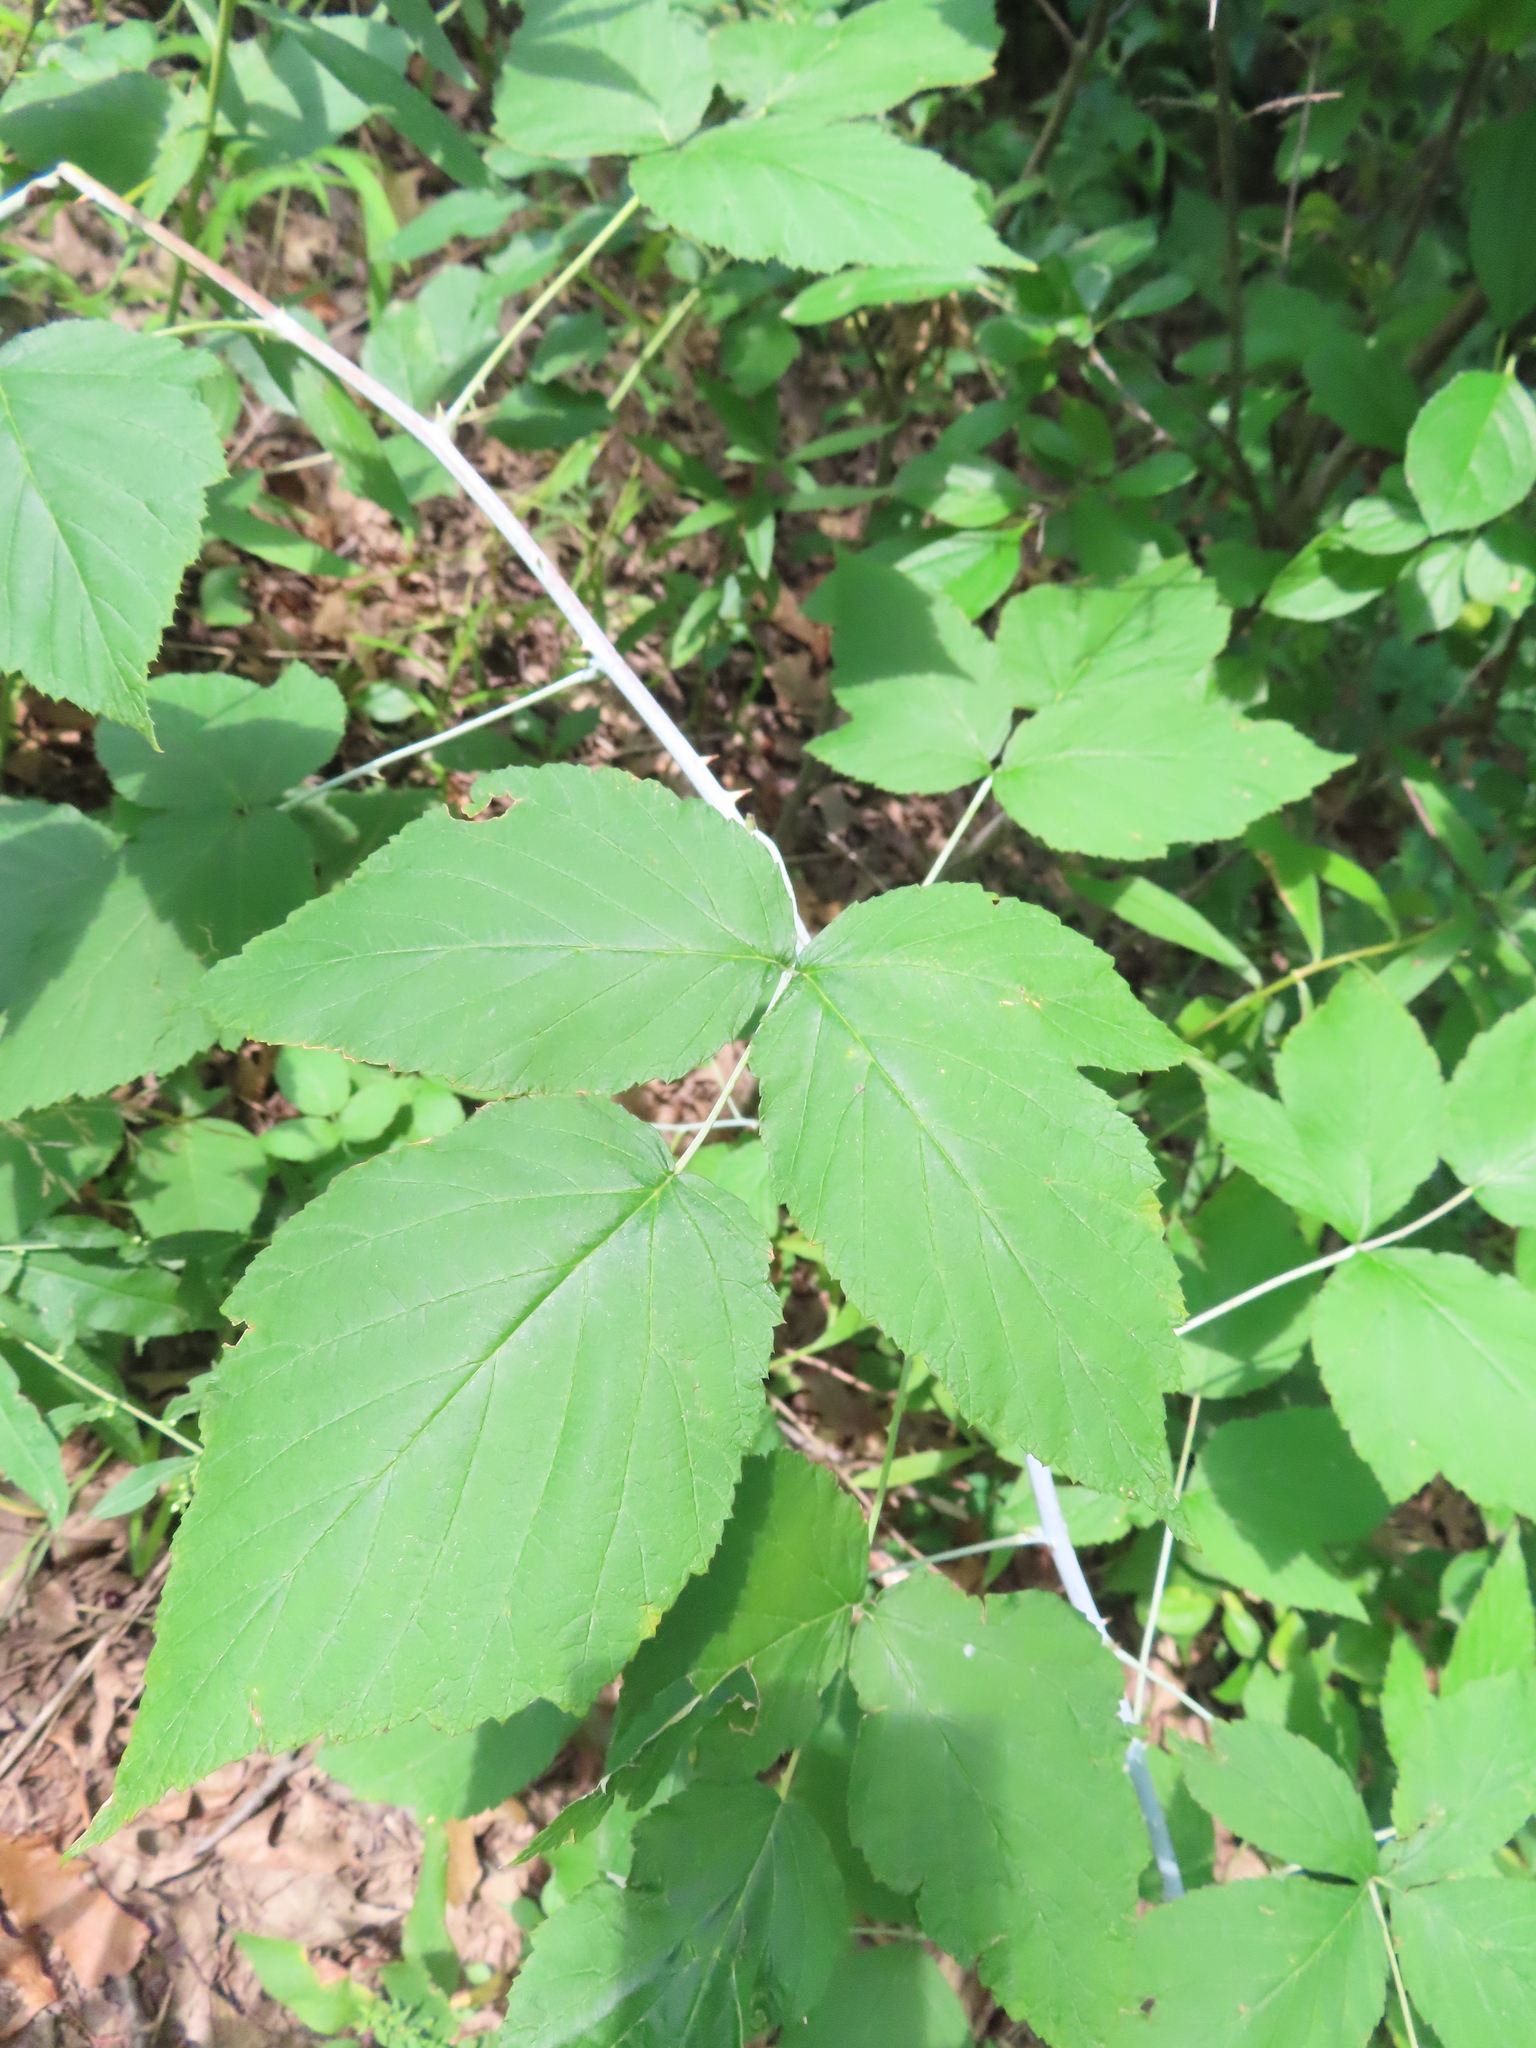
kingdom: Plantae
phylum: Tracheophyta
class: Magnoliopsida
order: Rosales
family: Rosaceae
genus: Rubus
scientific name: Rubus occidentalis
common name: Black raspberry
